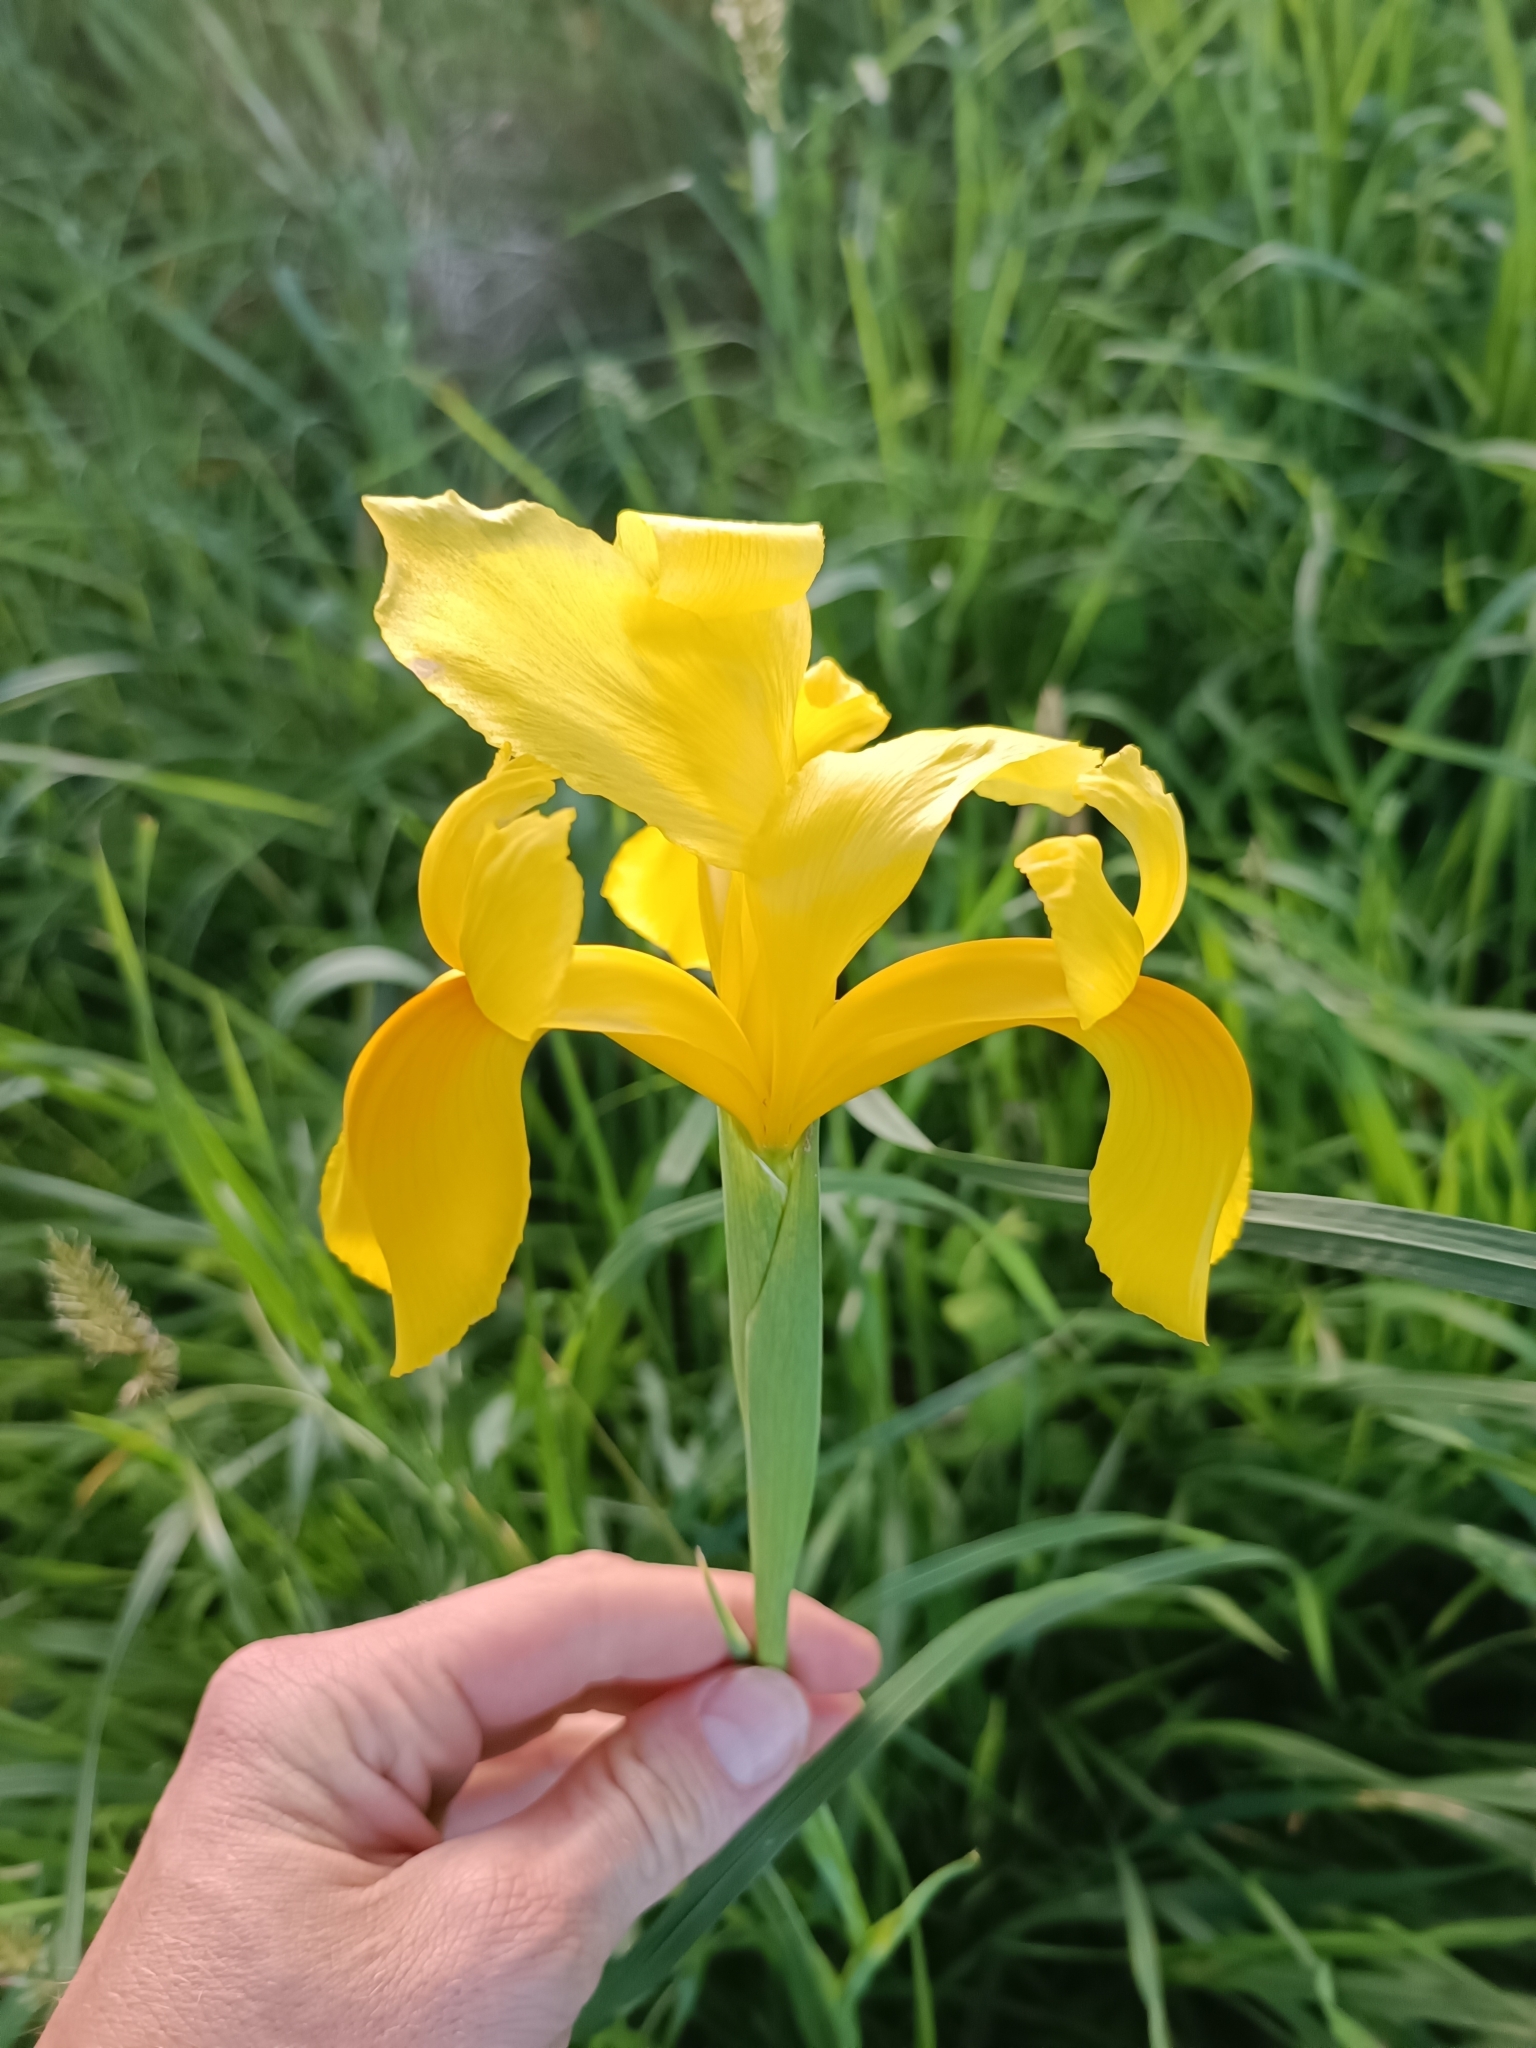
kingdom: Plantae
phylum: Tracheophyta
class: Liliopsida
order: Asparagales
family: Iridaceae
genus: Iris
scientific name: Iris hollandica
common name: Dutch iris
